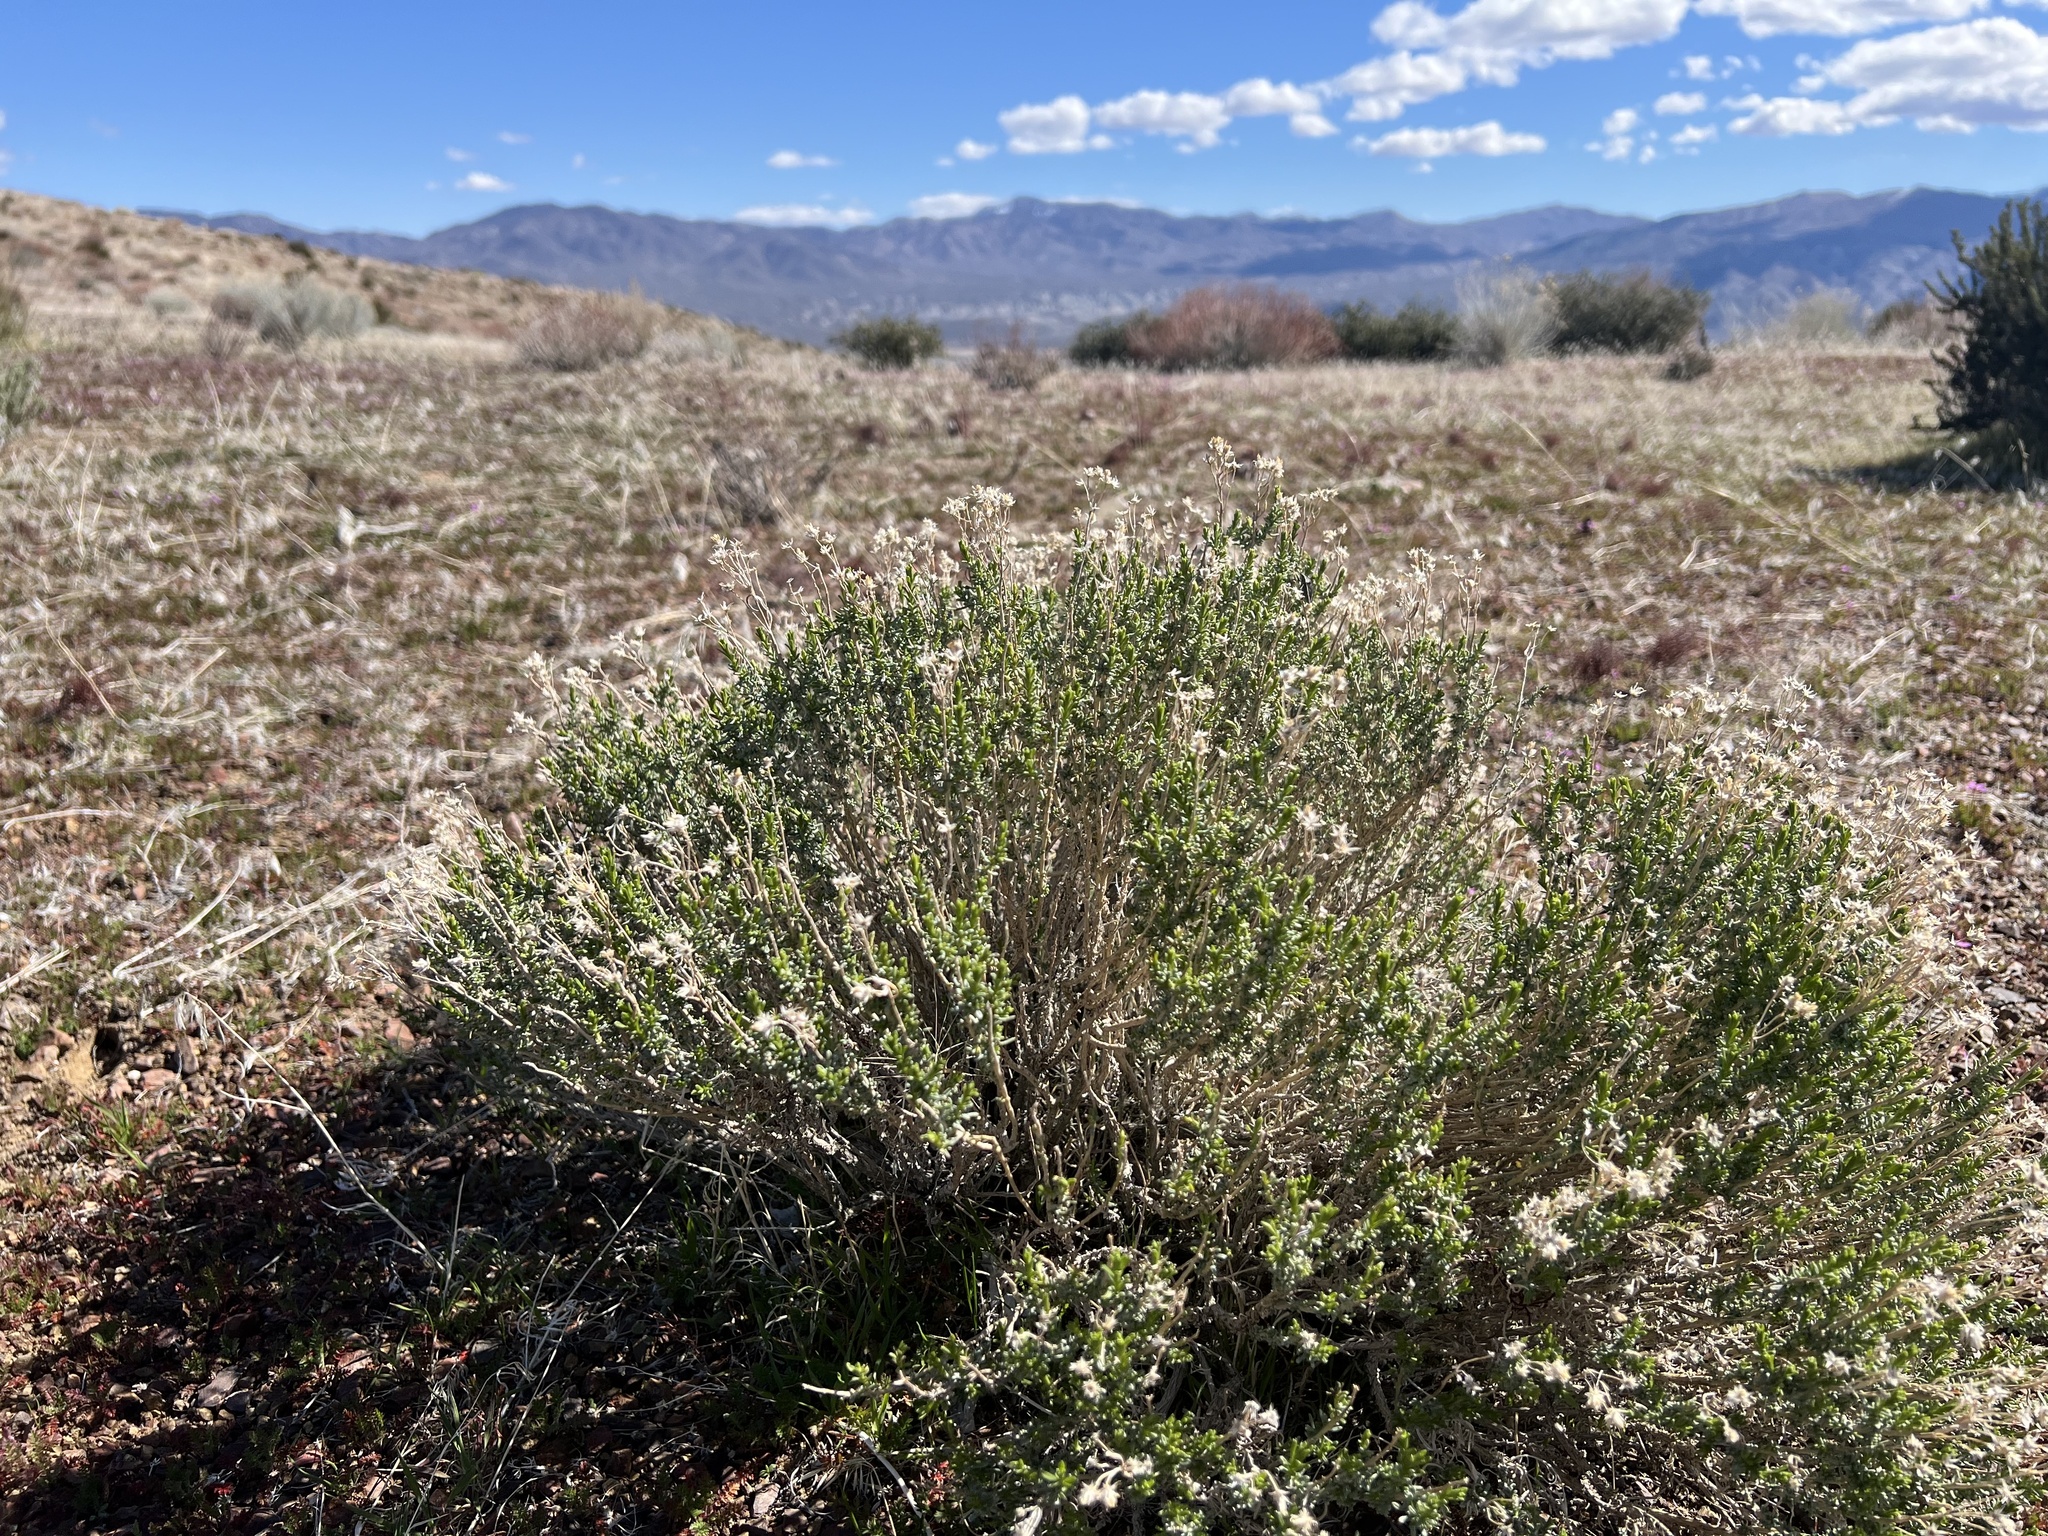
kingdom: Plantae
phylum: Tracheophyta
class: Magnoliopsida
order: Asterales
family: Asteraceae
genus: Ericameria
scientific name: Ericameria cooperi
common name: Cooper's goldenbush
